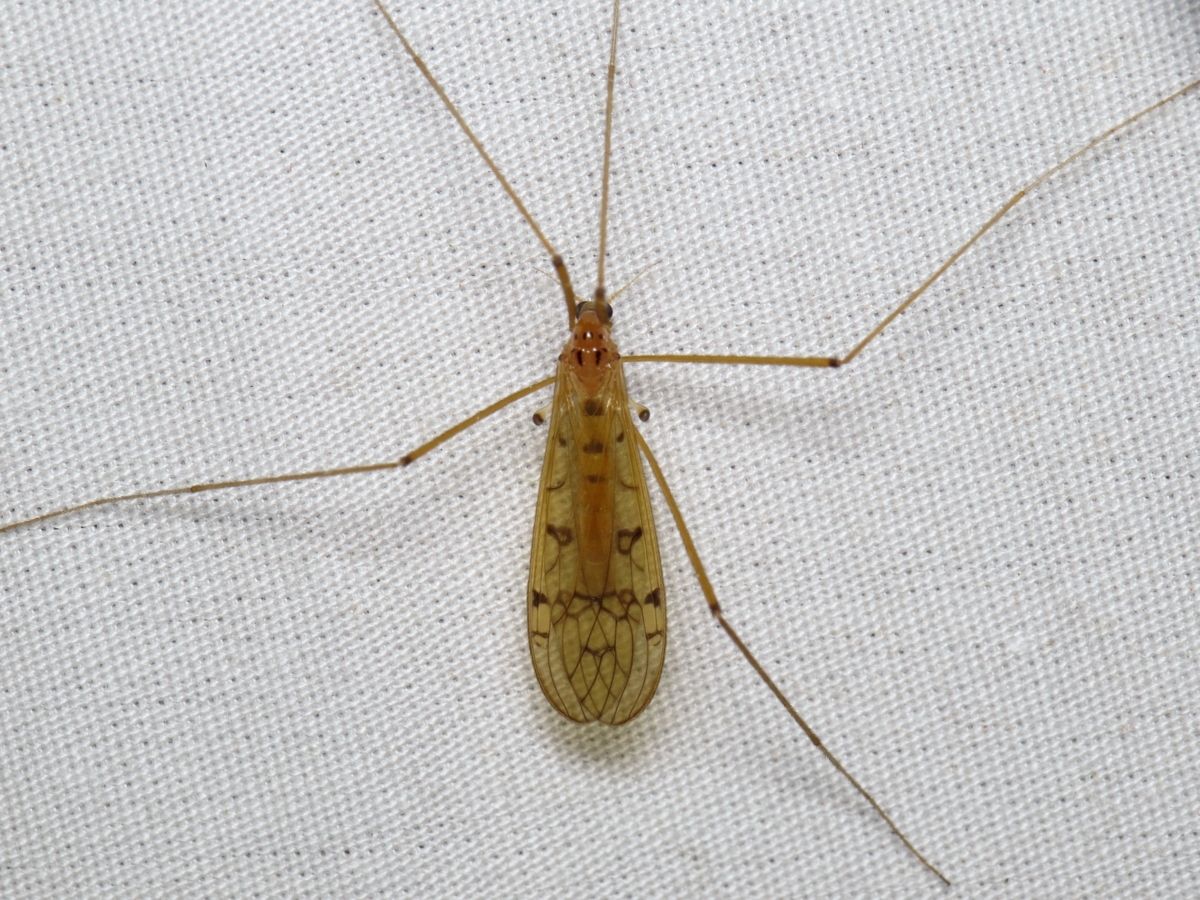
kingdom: Animalia
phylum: Arthropoda
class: Insecta
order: Diptera
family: Limoniidae
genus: Metalimnobia
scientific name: Metalimnobia triocellata
